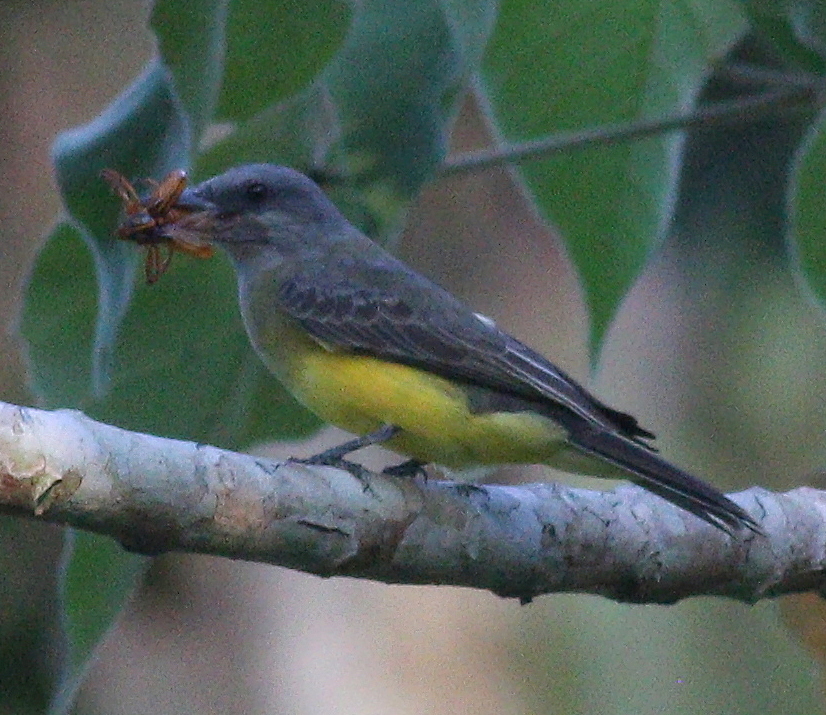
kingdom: Animalia
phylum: Chordata
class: Aves
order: Passeriformes
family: Tyrannidae
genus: Tyrannus
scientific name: Tyrannus melancholicus
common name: Tropical kingbird
